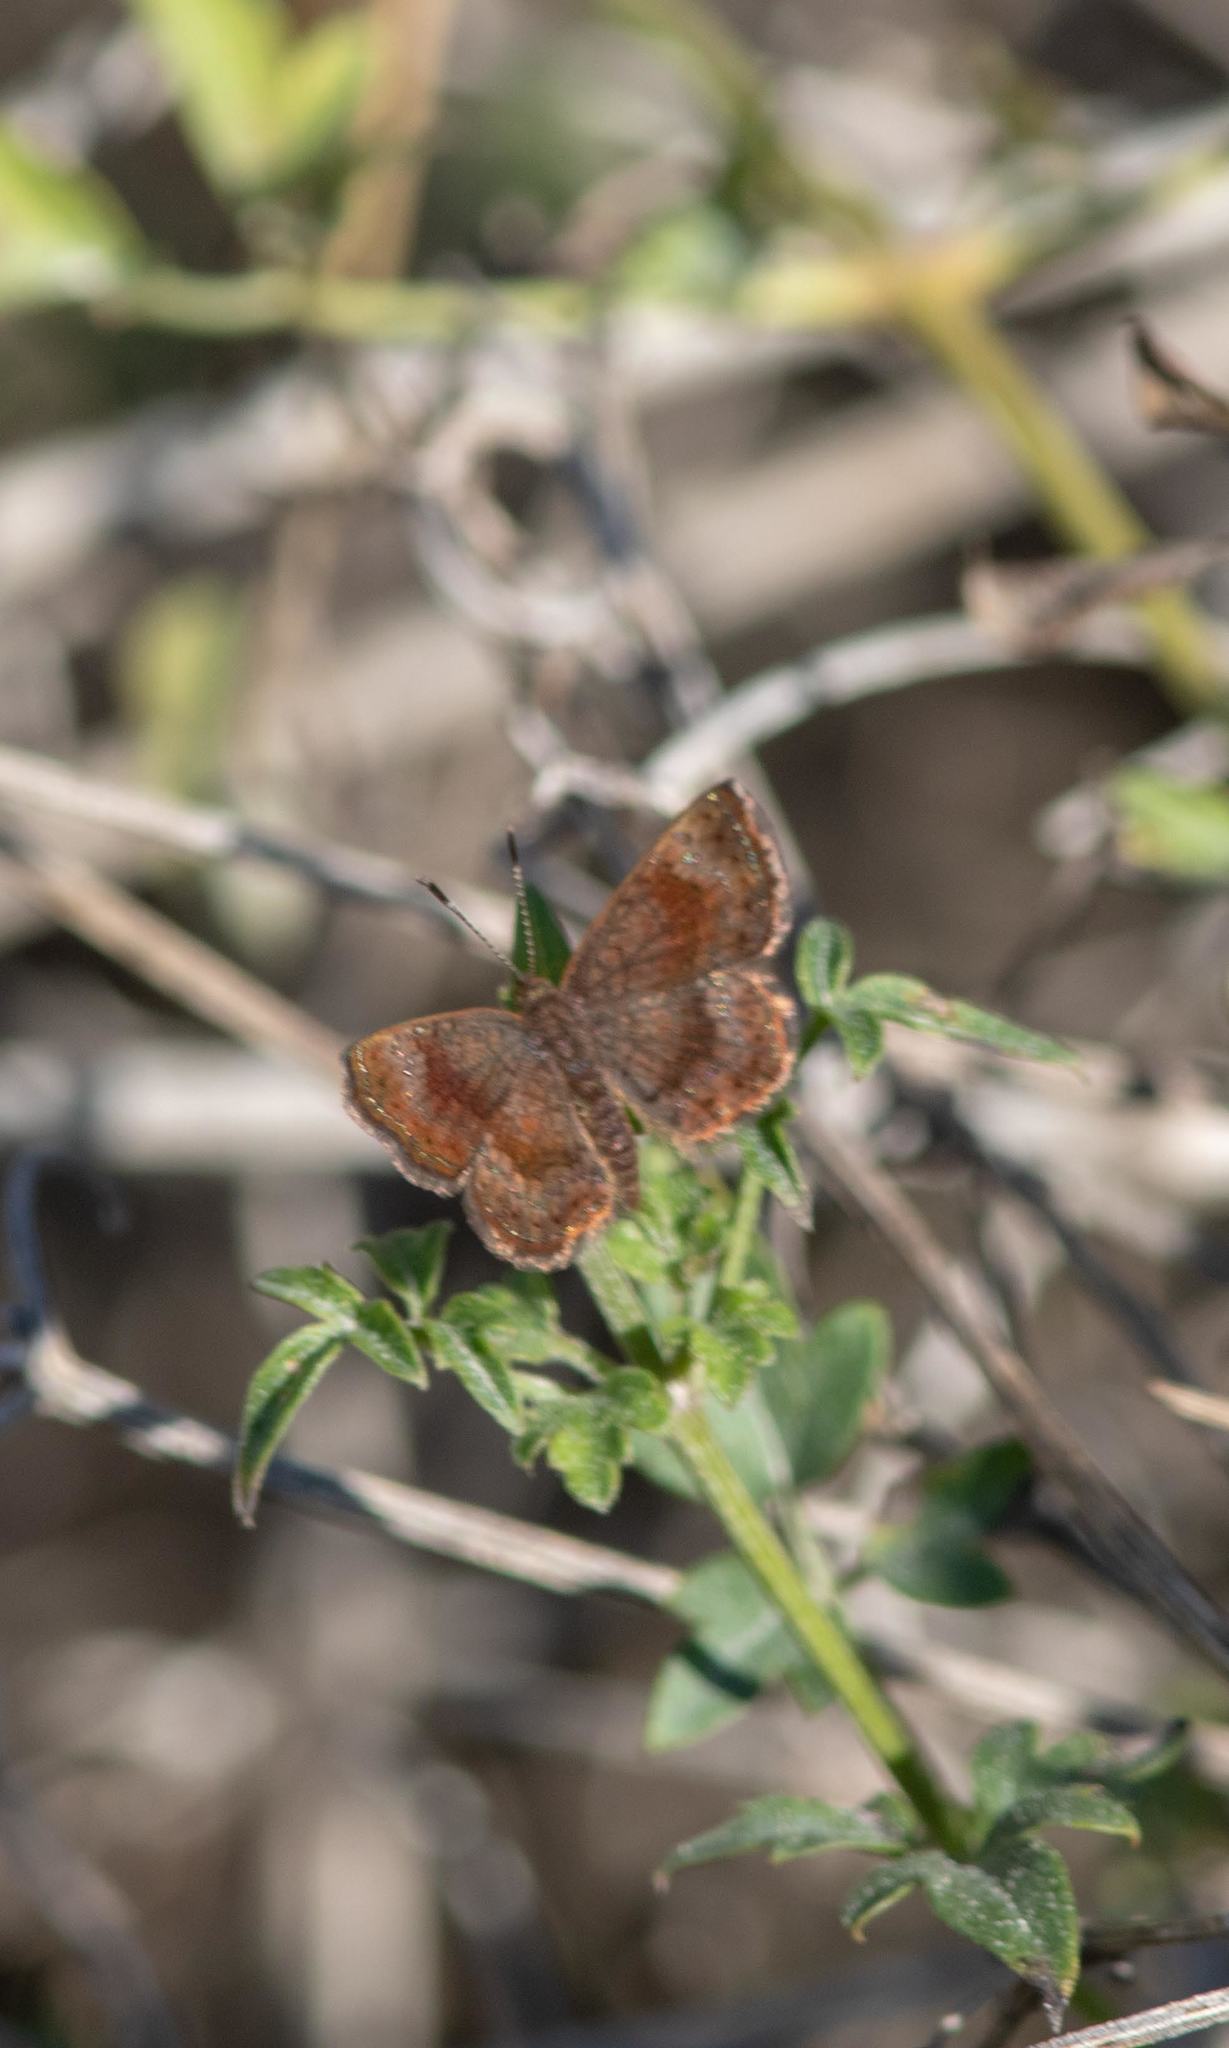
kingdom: Animalia
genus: Calephelis
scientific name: Calephelis perditalis
